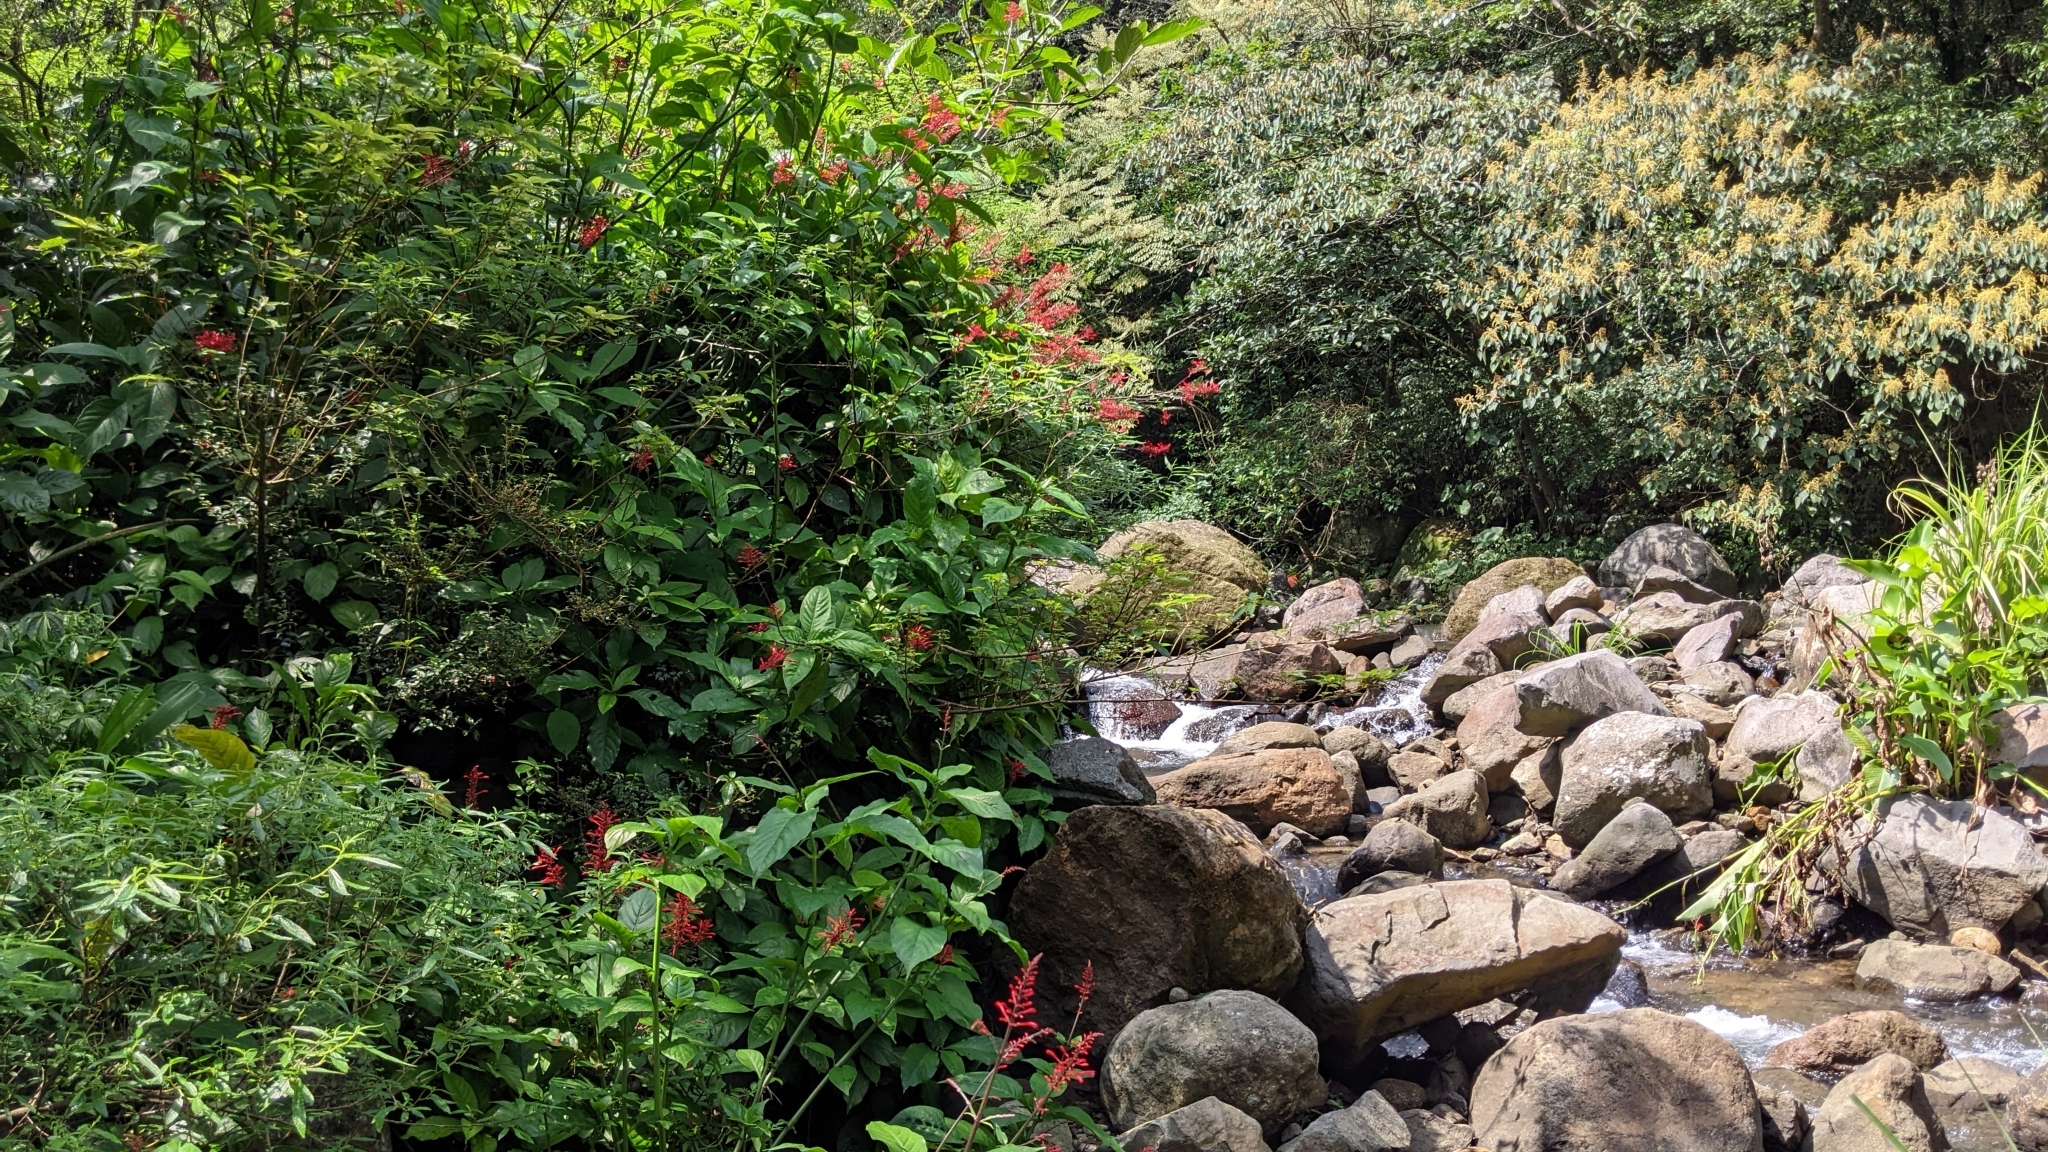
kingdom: Plantae
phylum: Tracheophyta
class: Magnoliopsida
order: Lamiales
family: Acanthaceae
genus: Odontonema
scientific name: Odontonema tubaeforme
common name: Firespike
